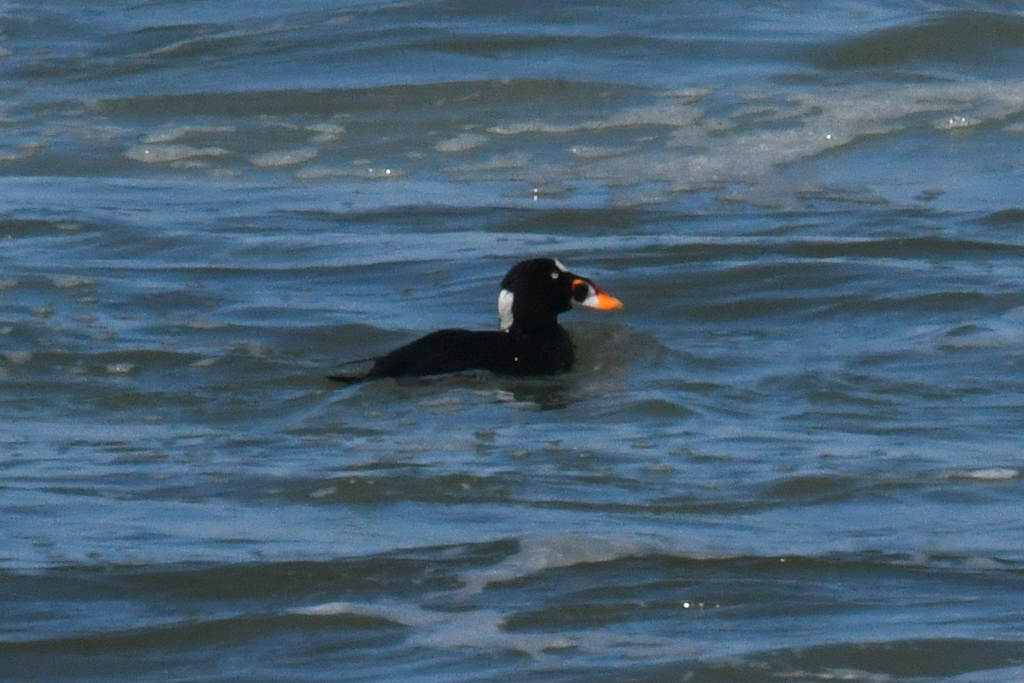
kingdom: Animalia
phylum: Chordata
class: Aves
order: Anseriformes
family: Anatidae
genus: Melanitta
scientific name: Melanitta perspicillata
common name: Surf scoter
